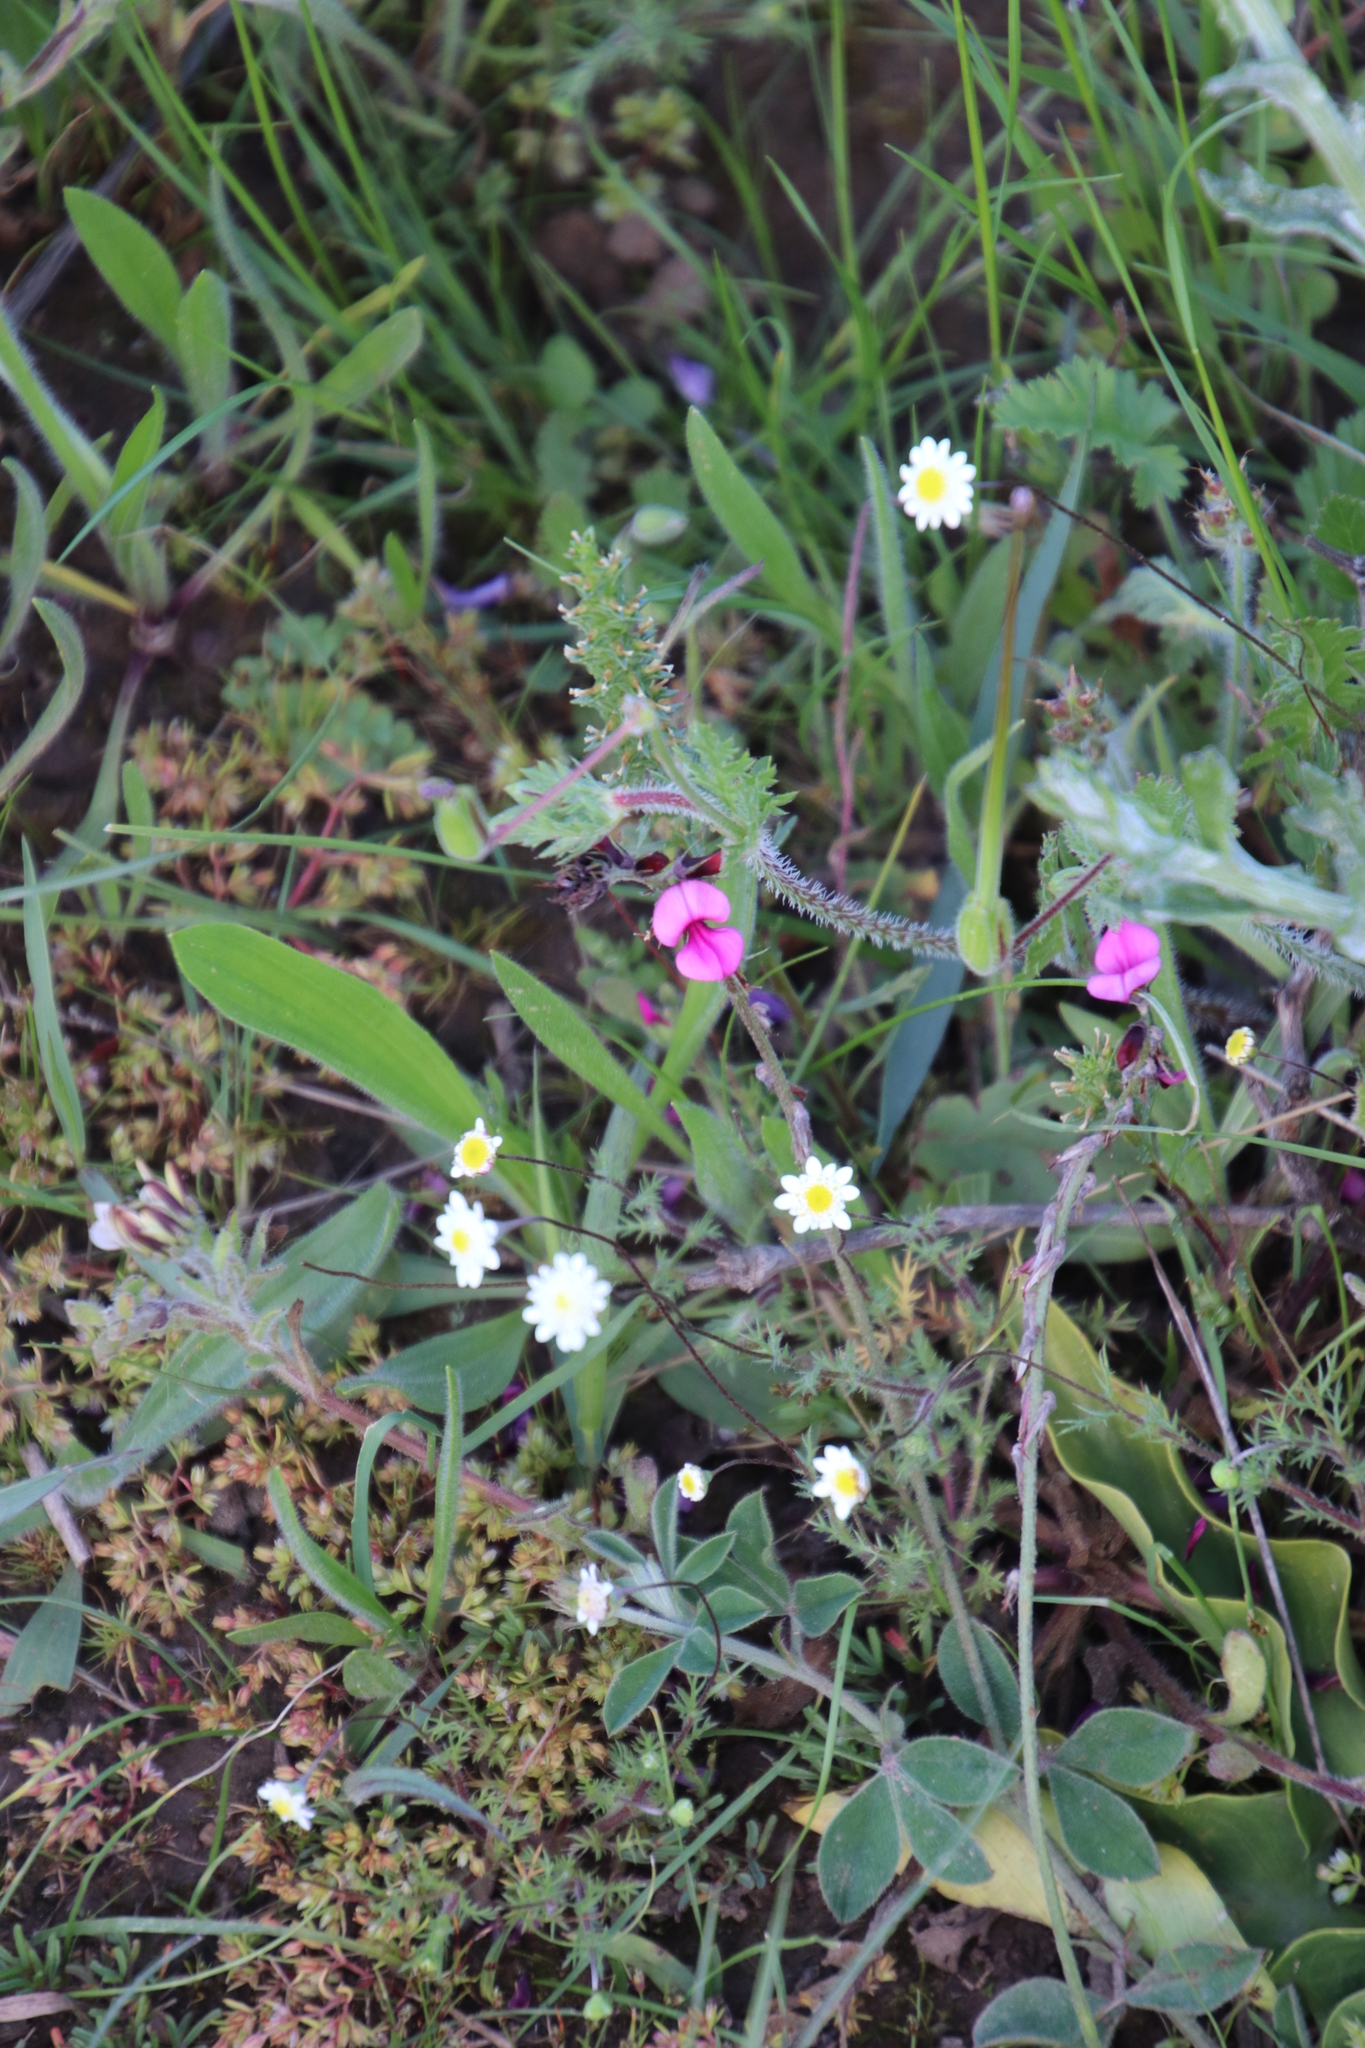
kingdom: Plantae
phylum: Tracheophyta
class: Magnoliopsida
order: Fabales
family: Fabaceae
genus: Indigofera
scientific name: Indigofera incana
